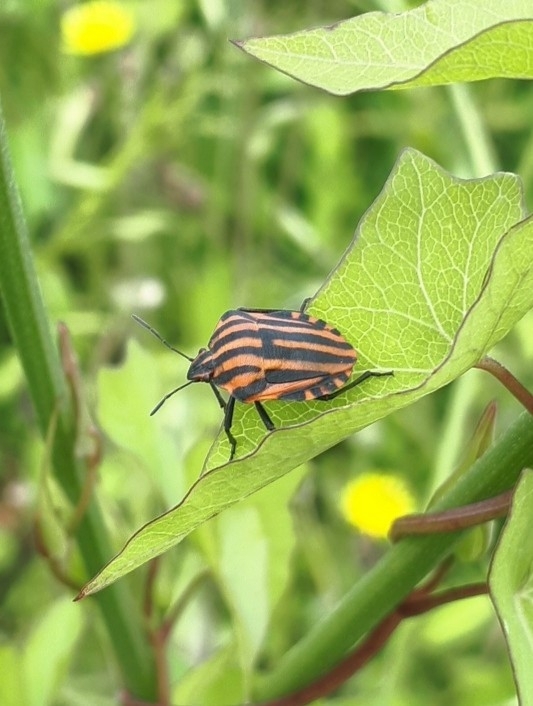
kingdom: Animalia
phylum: Arthropoda
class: Insecta
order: Hemiptera
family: Pentatomidae
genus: Graphosoma
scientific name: Graphosoma italicum
